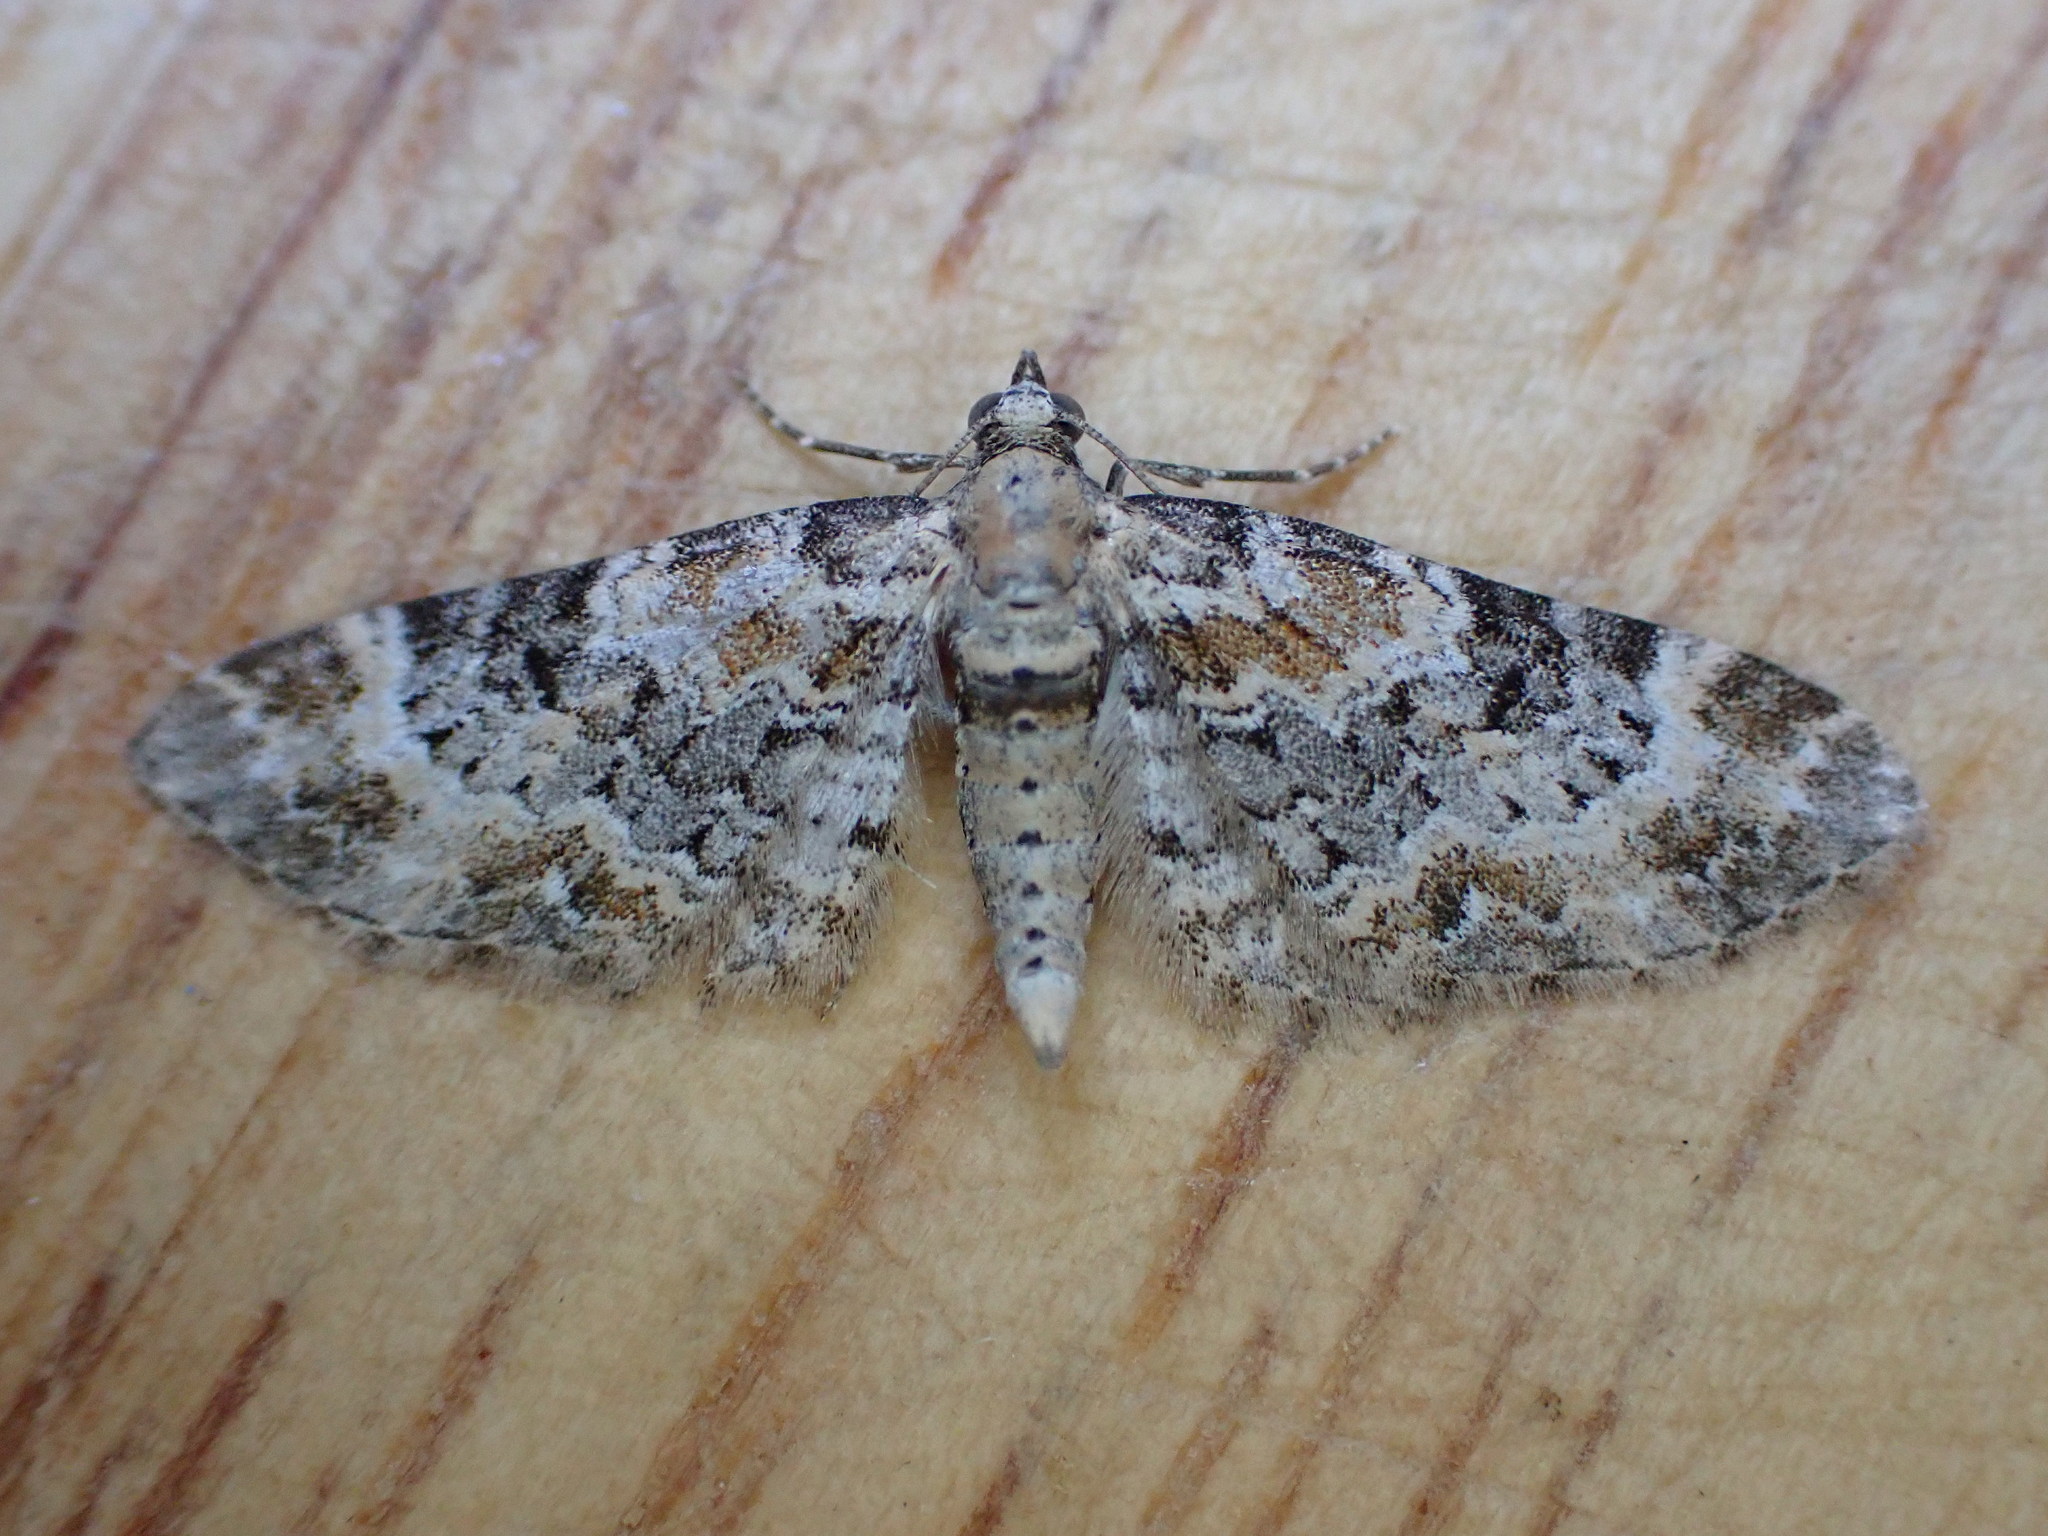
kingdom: Animalia
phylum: Arthropoda
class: Insecta
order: Lepidoptera
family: Geometridae
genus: Eupithecia
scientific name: Eupithecia pulchellata
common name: Foxglove pug
